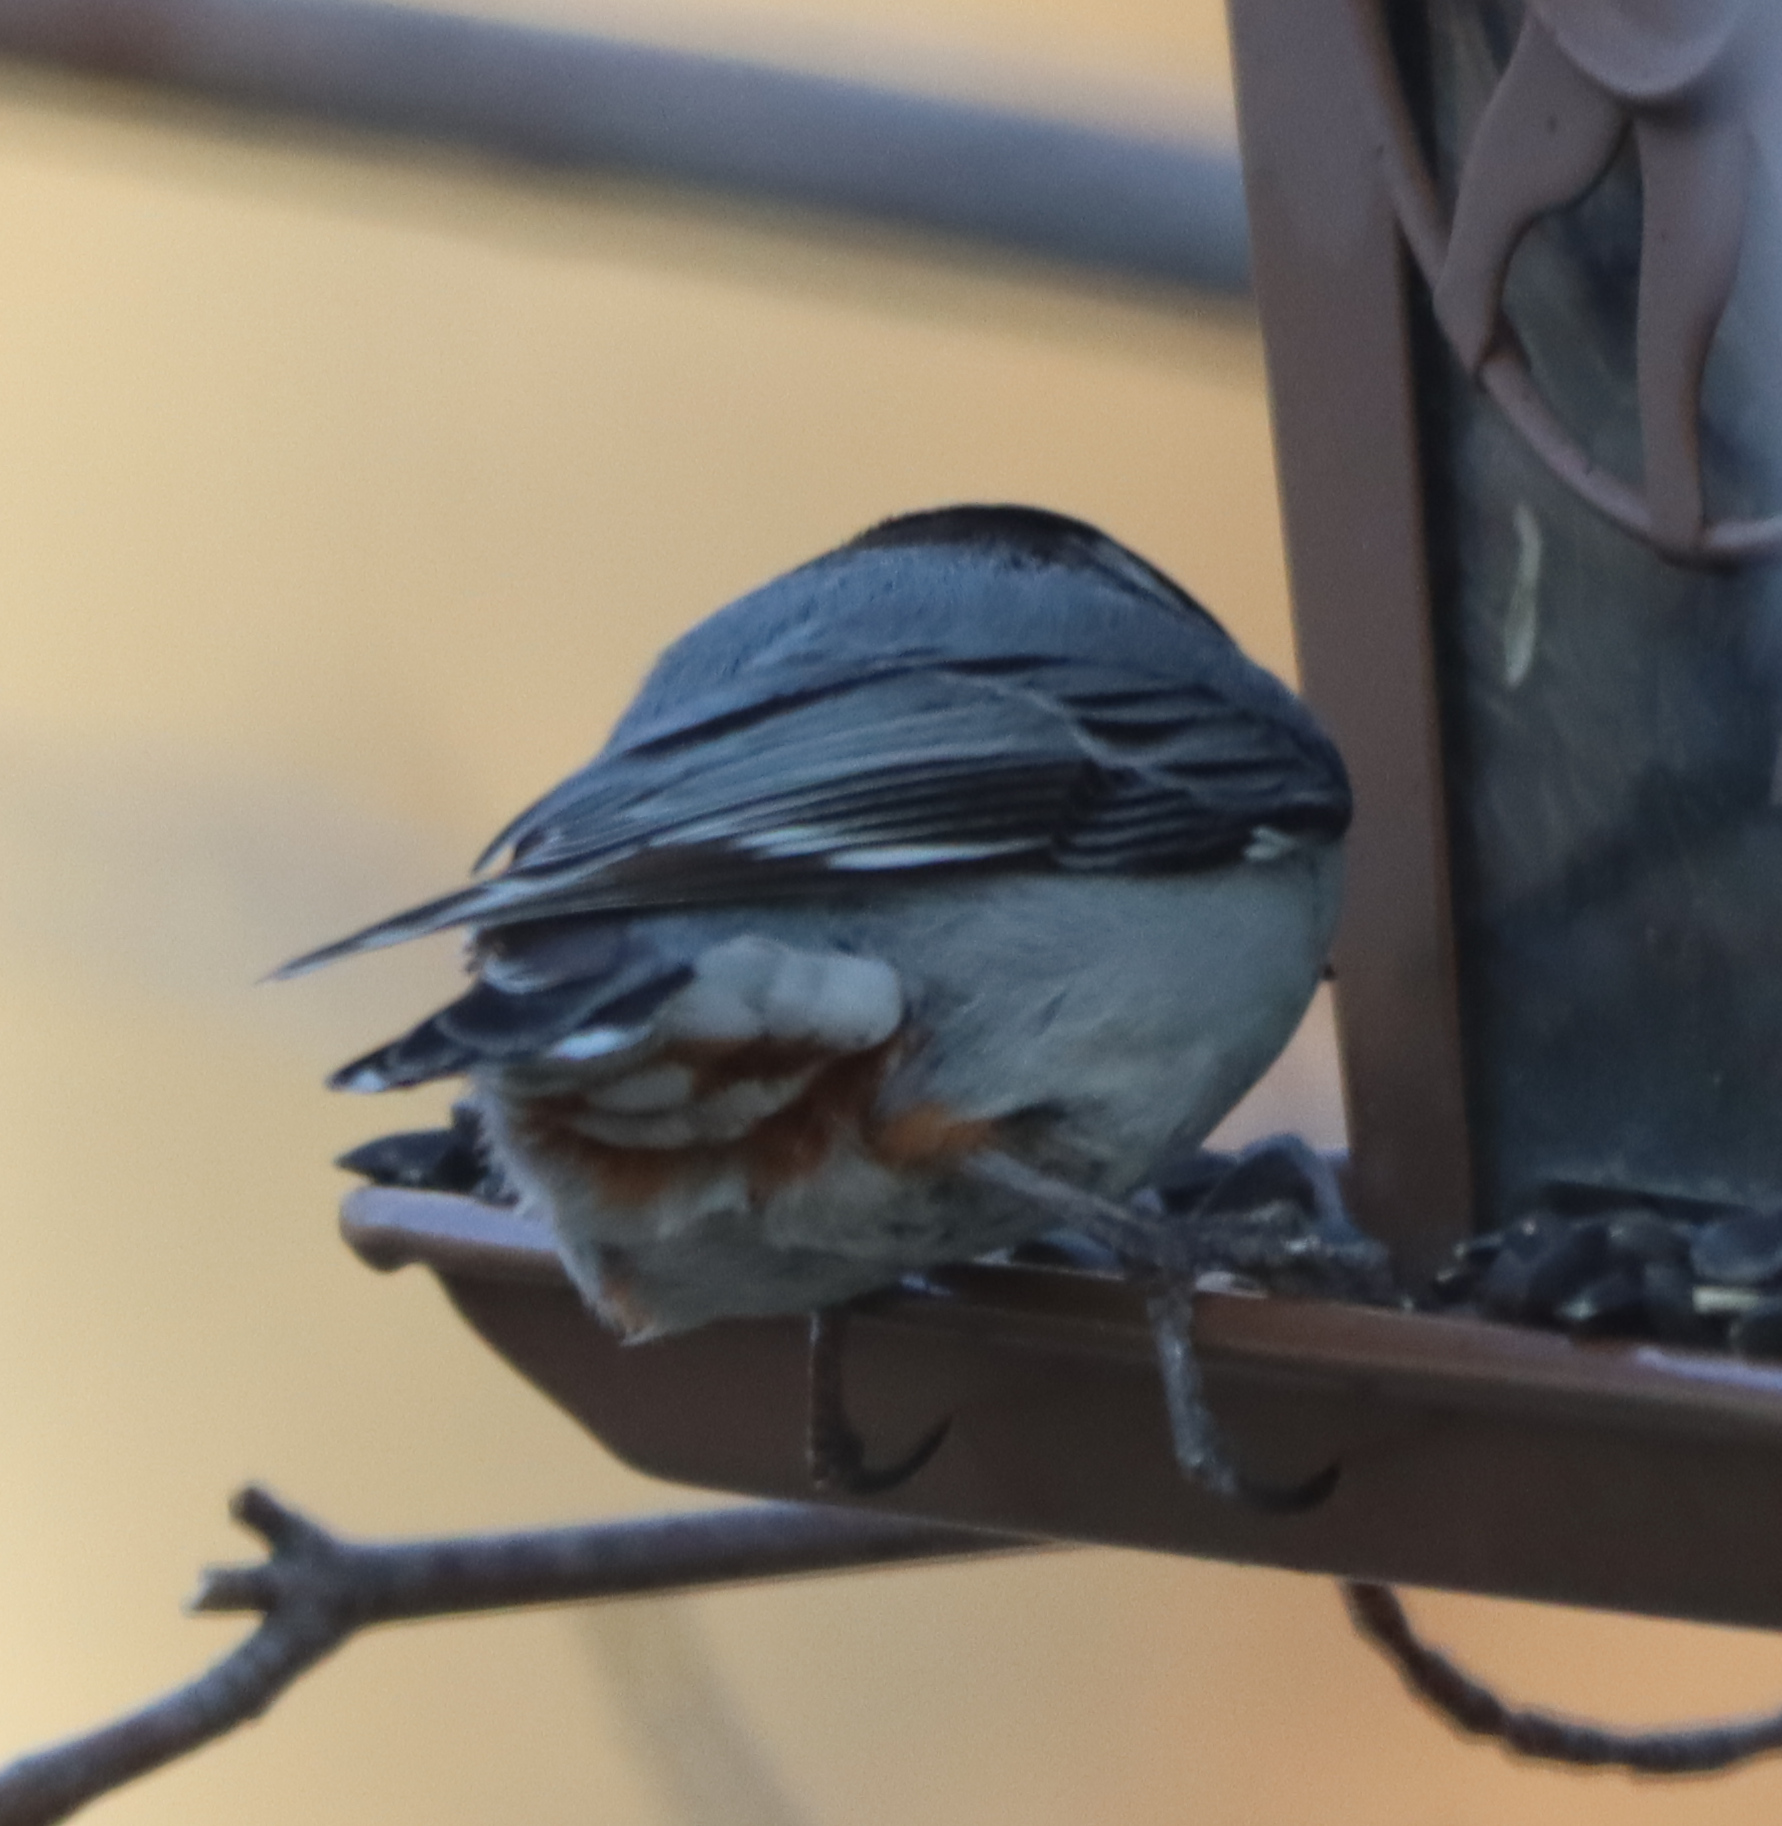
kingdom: Animalia
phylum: Chordata
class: Aves
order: Passeriformes
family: Sittidae
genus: Sitta
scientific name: Sitta carolinensis
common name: White-breasted nuthatch
